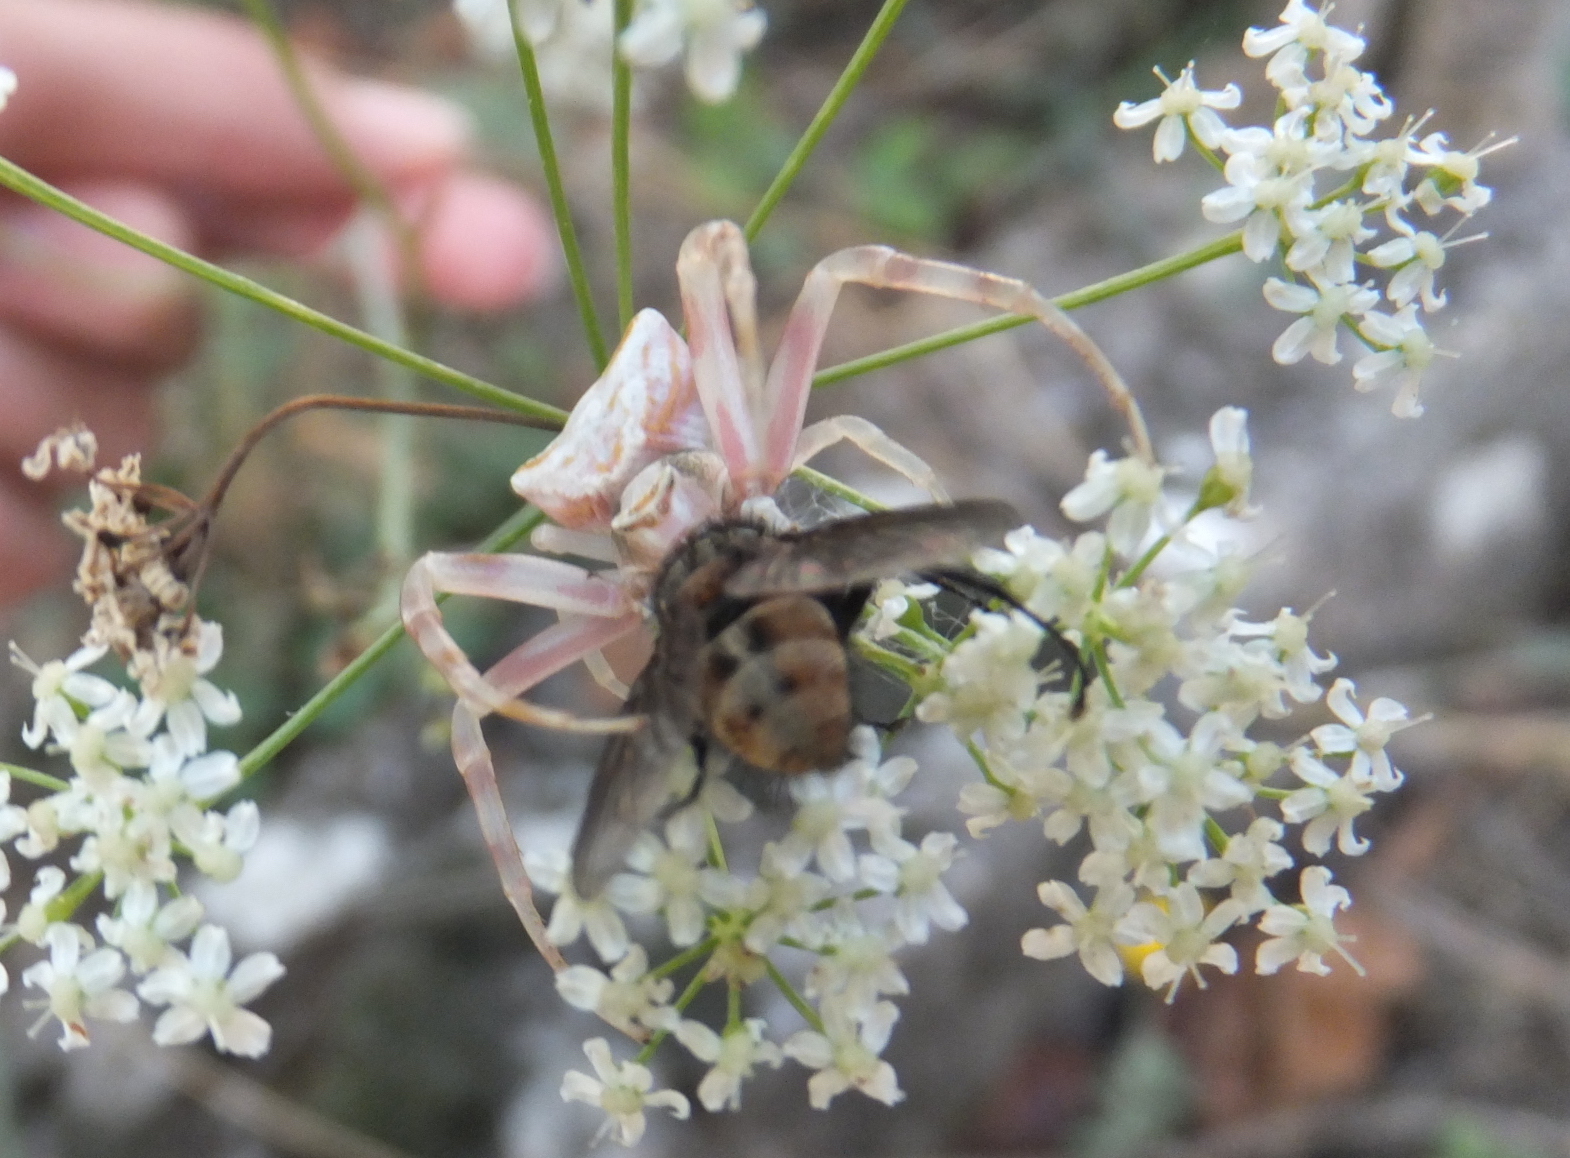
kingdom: Animalia
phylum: Arthropoda
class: Arachnida
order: Araneae
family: Thomisidae
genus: Thomisus
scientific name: Thomisus onustus
